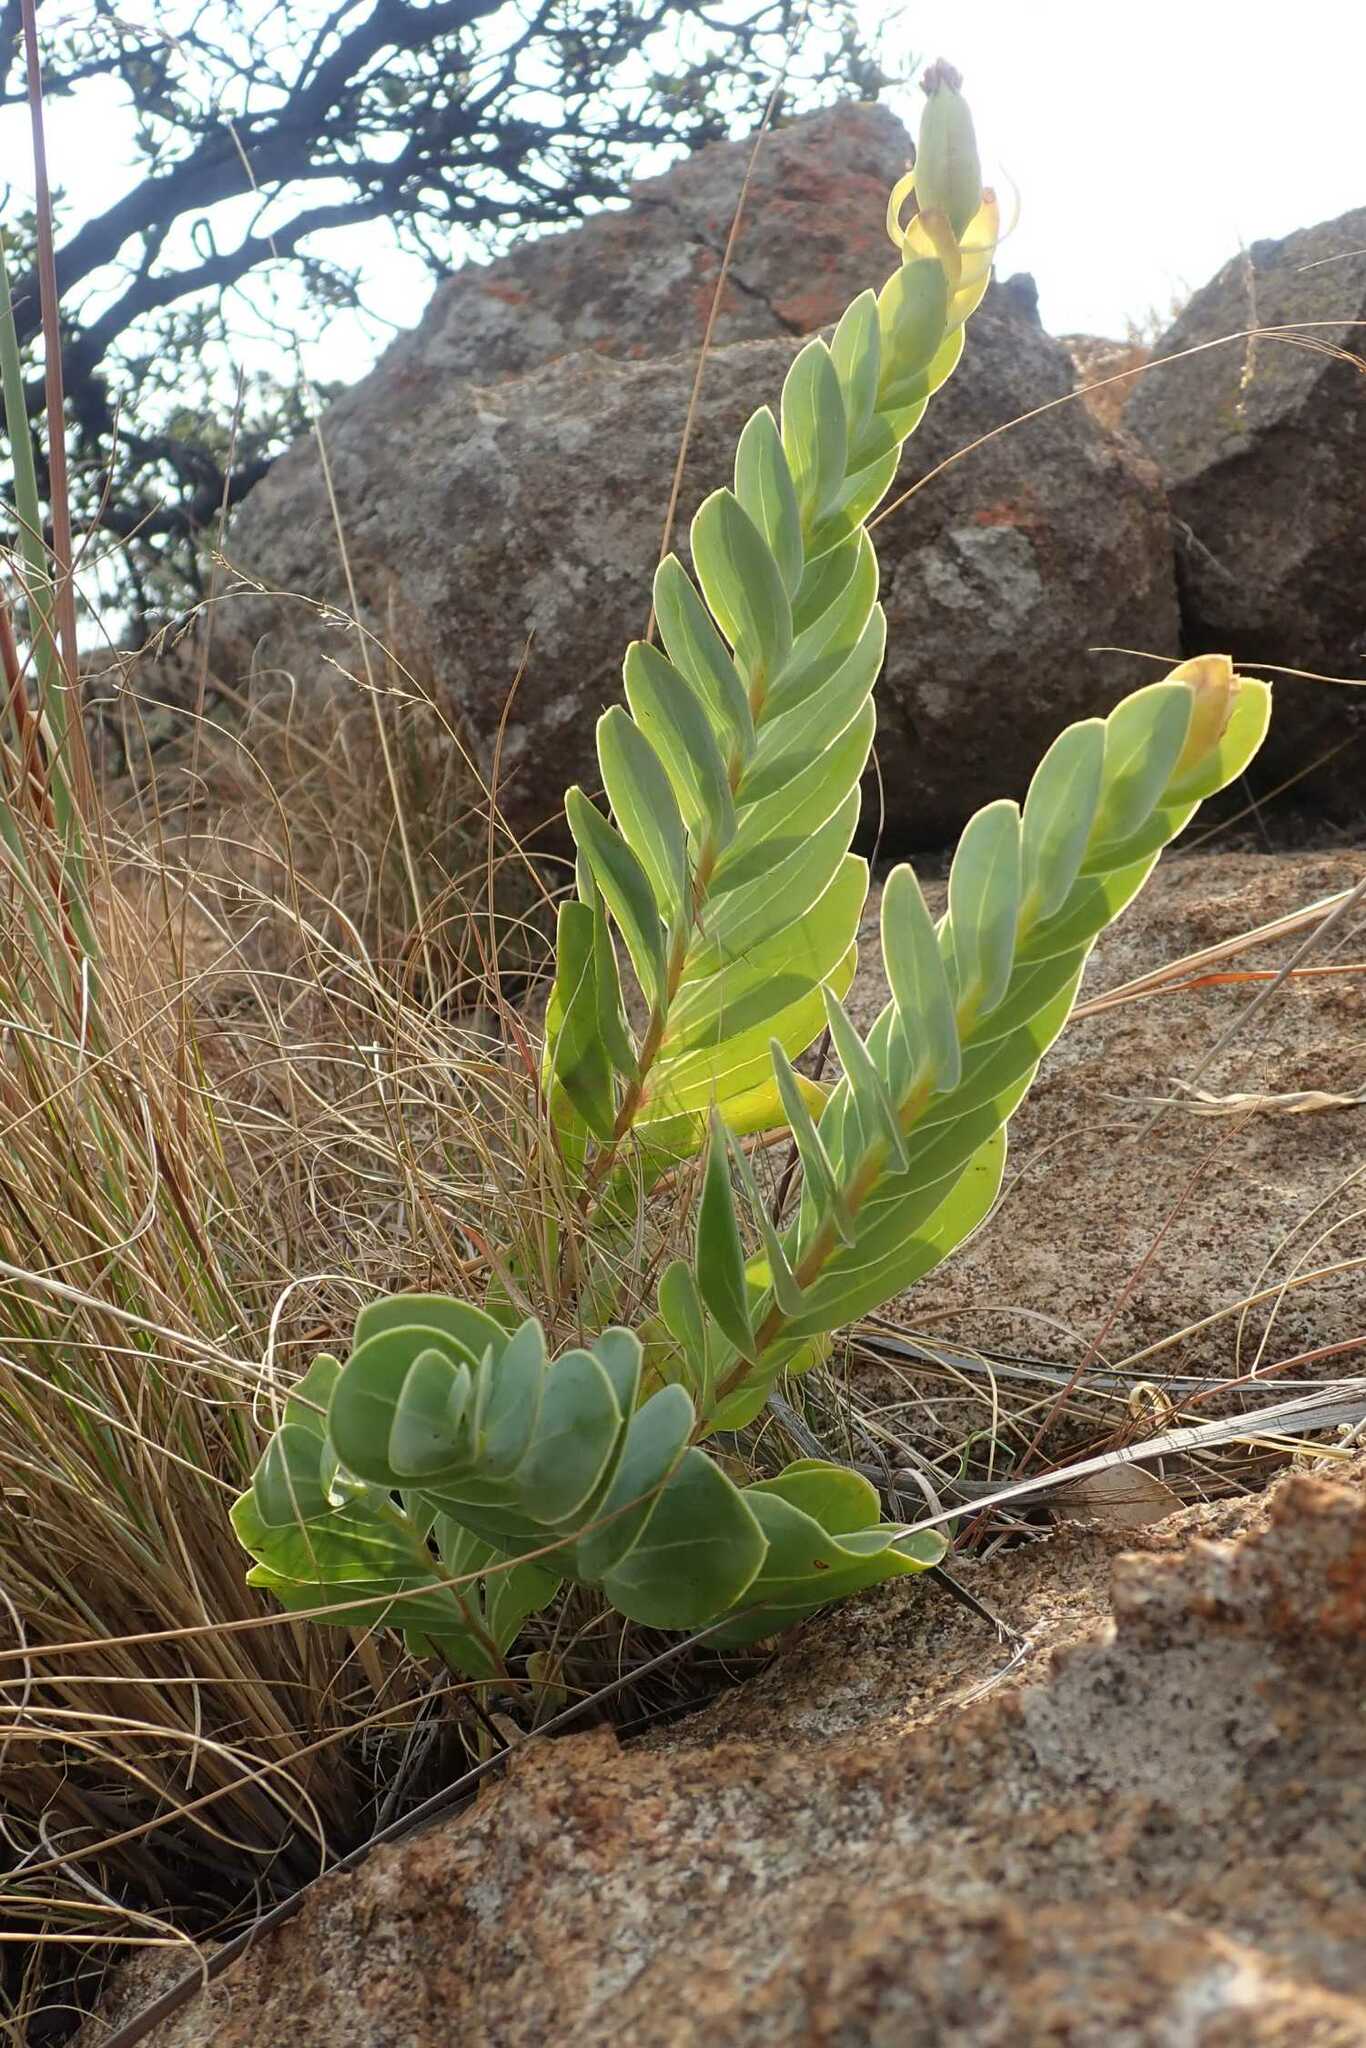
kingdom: Plantae
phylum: Tracheophyta
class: Magnoliopsida
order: Asterales
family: Asteraceae
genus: Lopholaena
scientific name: Lopholaena disticha
